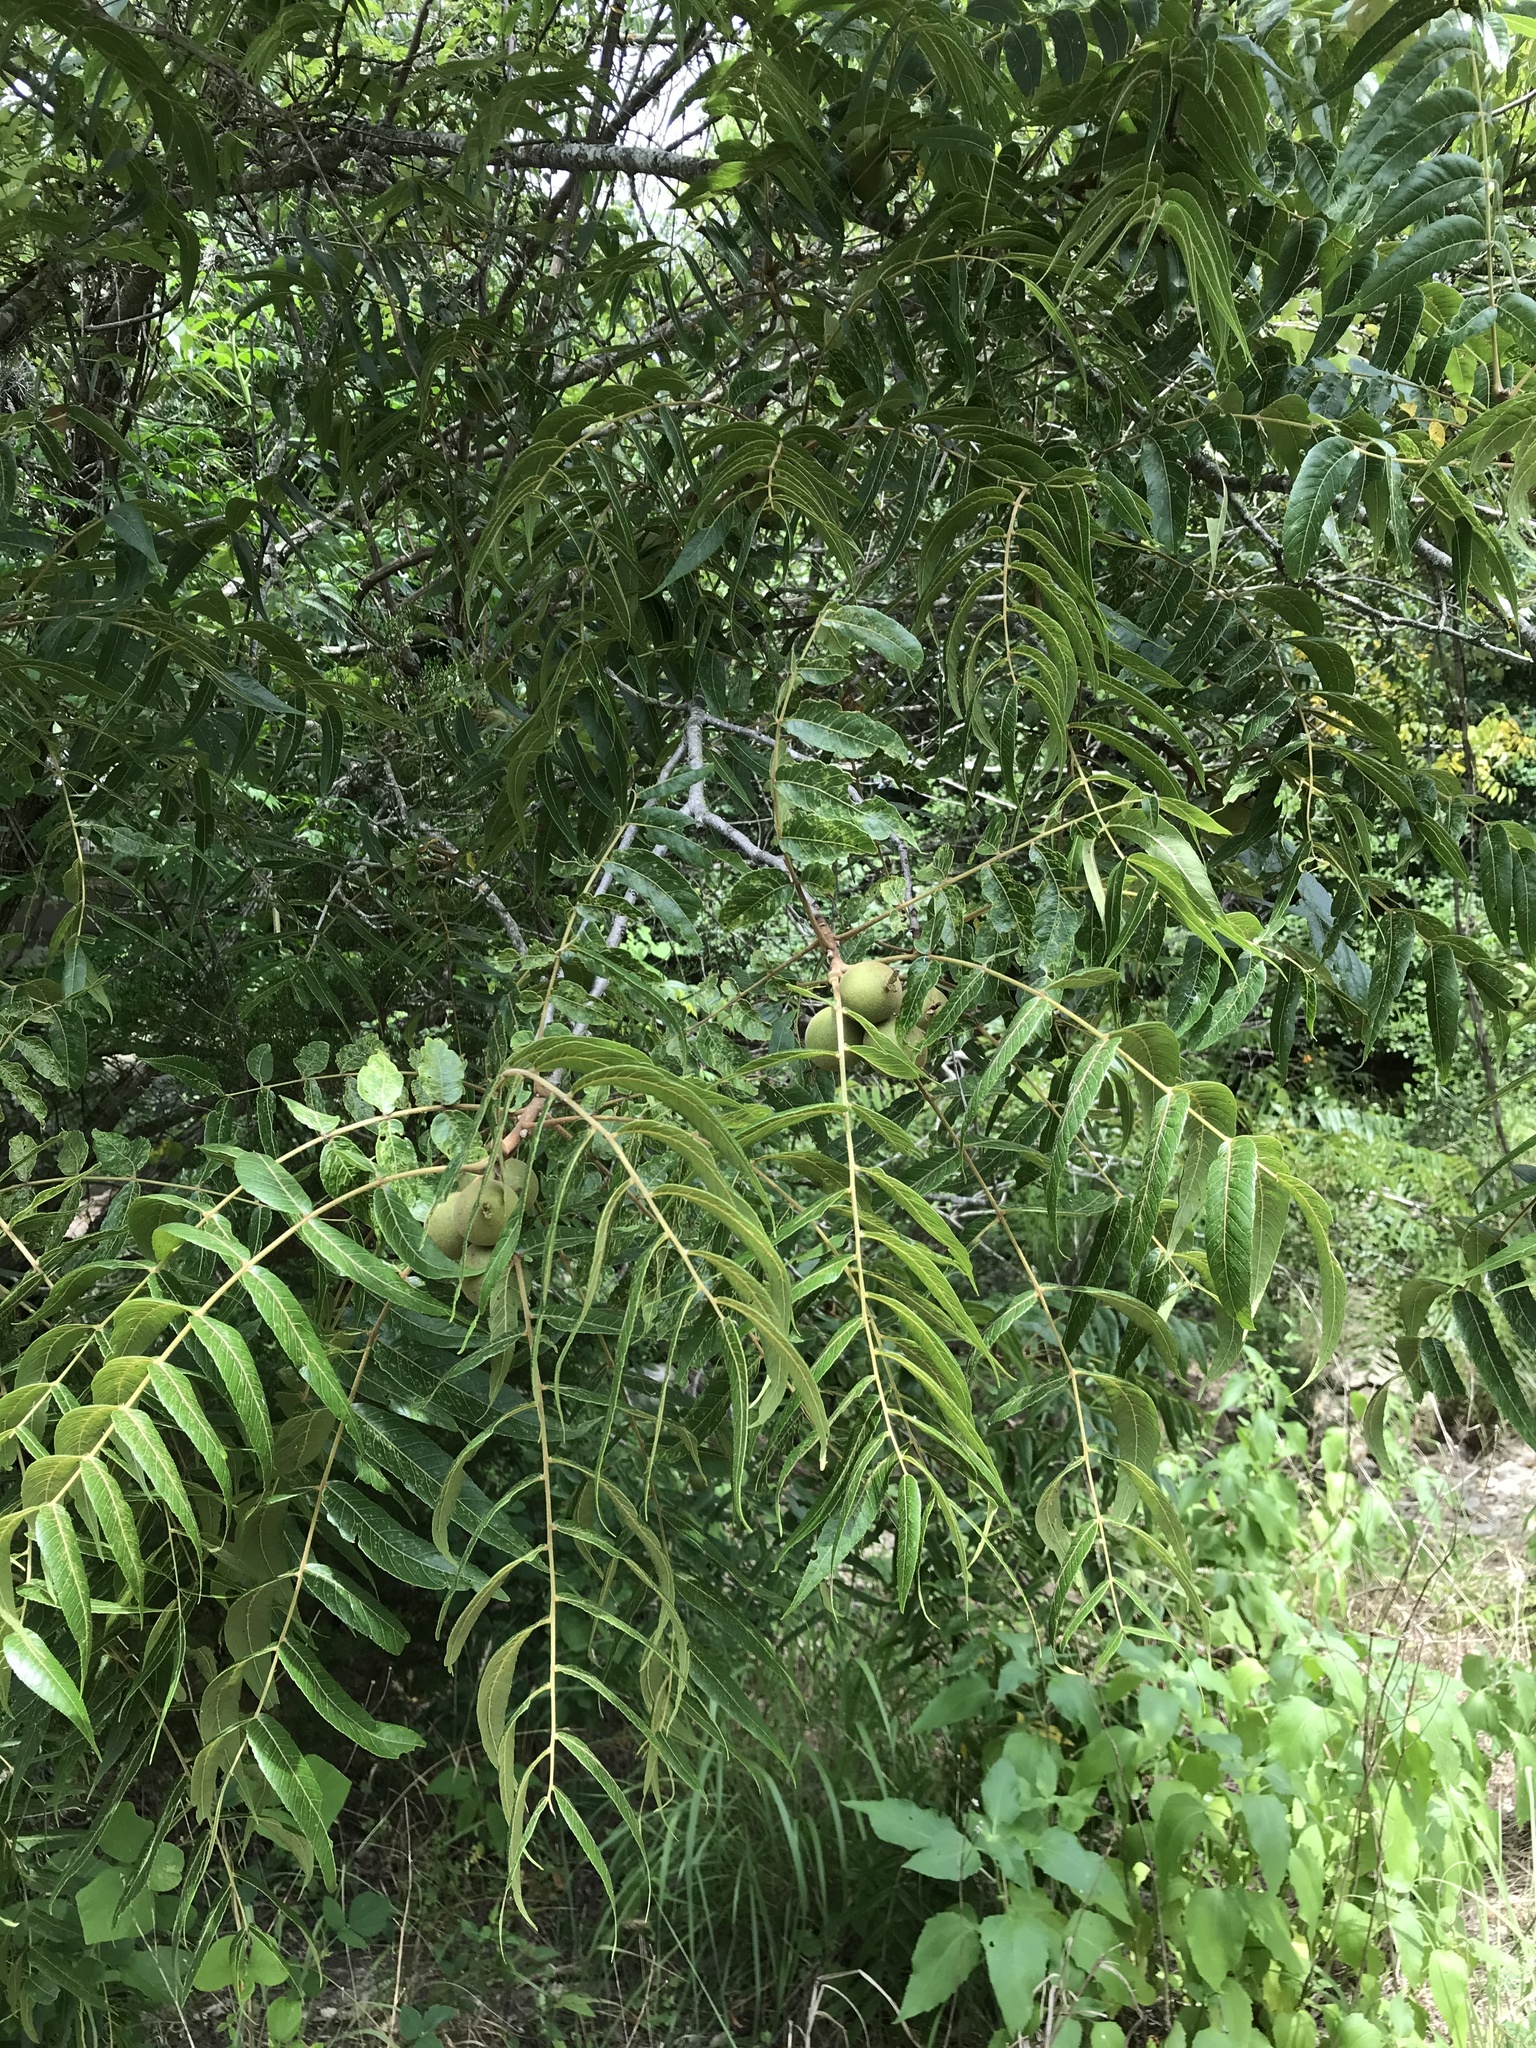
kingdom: Plantae
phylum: Tracheophyta
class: Magnoliopsida
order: Fagales
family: Juglandaceae
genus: Juglans
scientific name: Juglans nigra
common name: Black walnut
